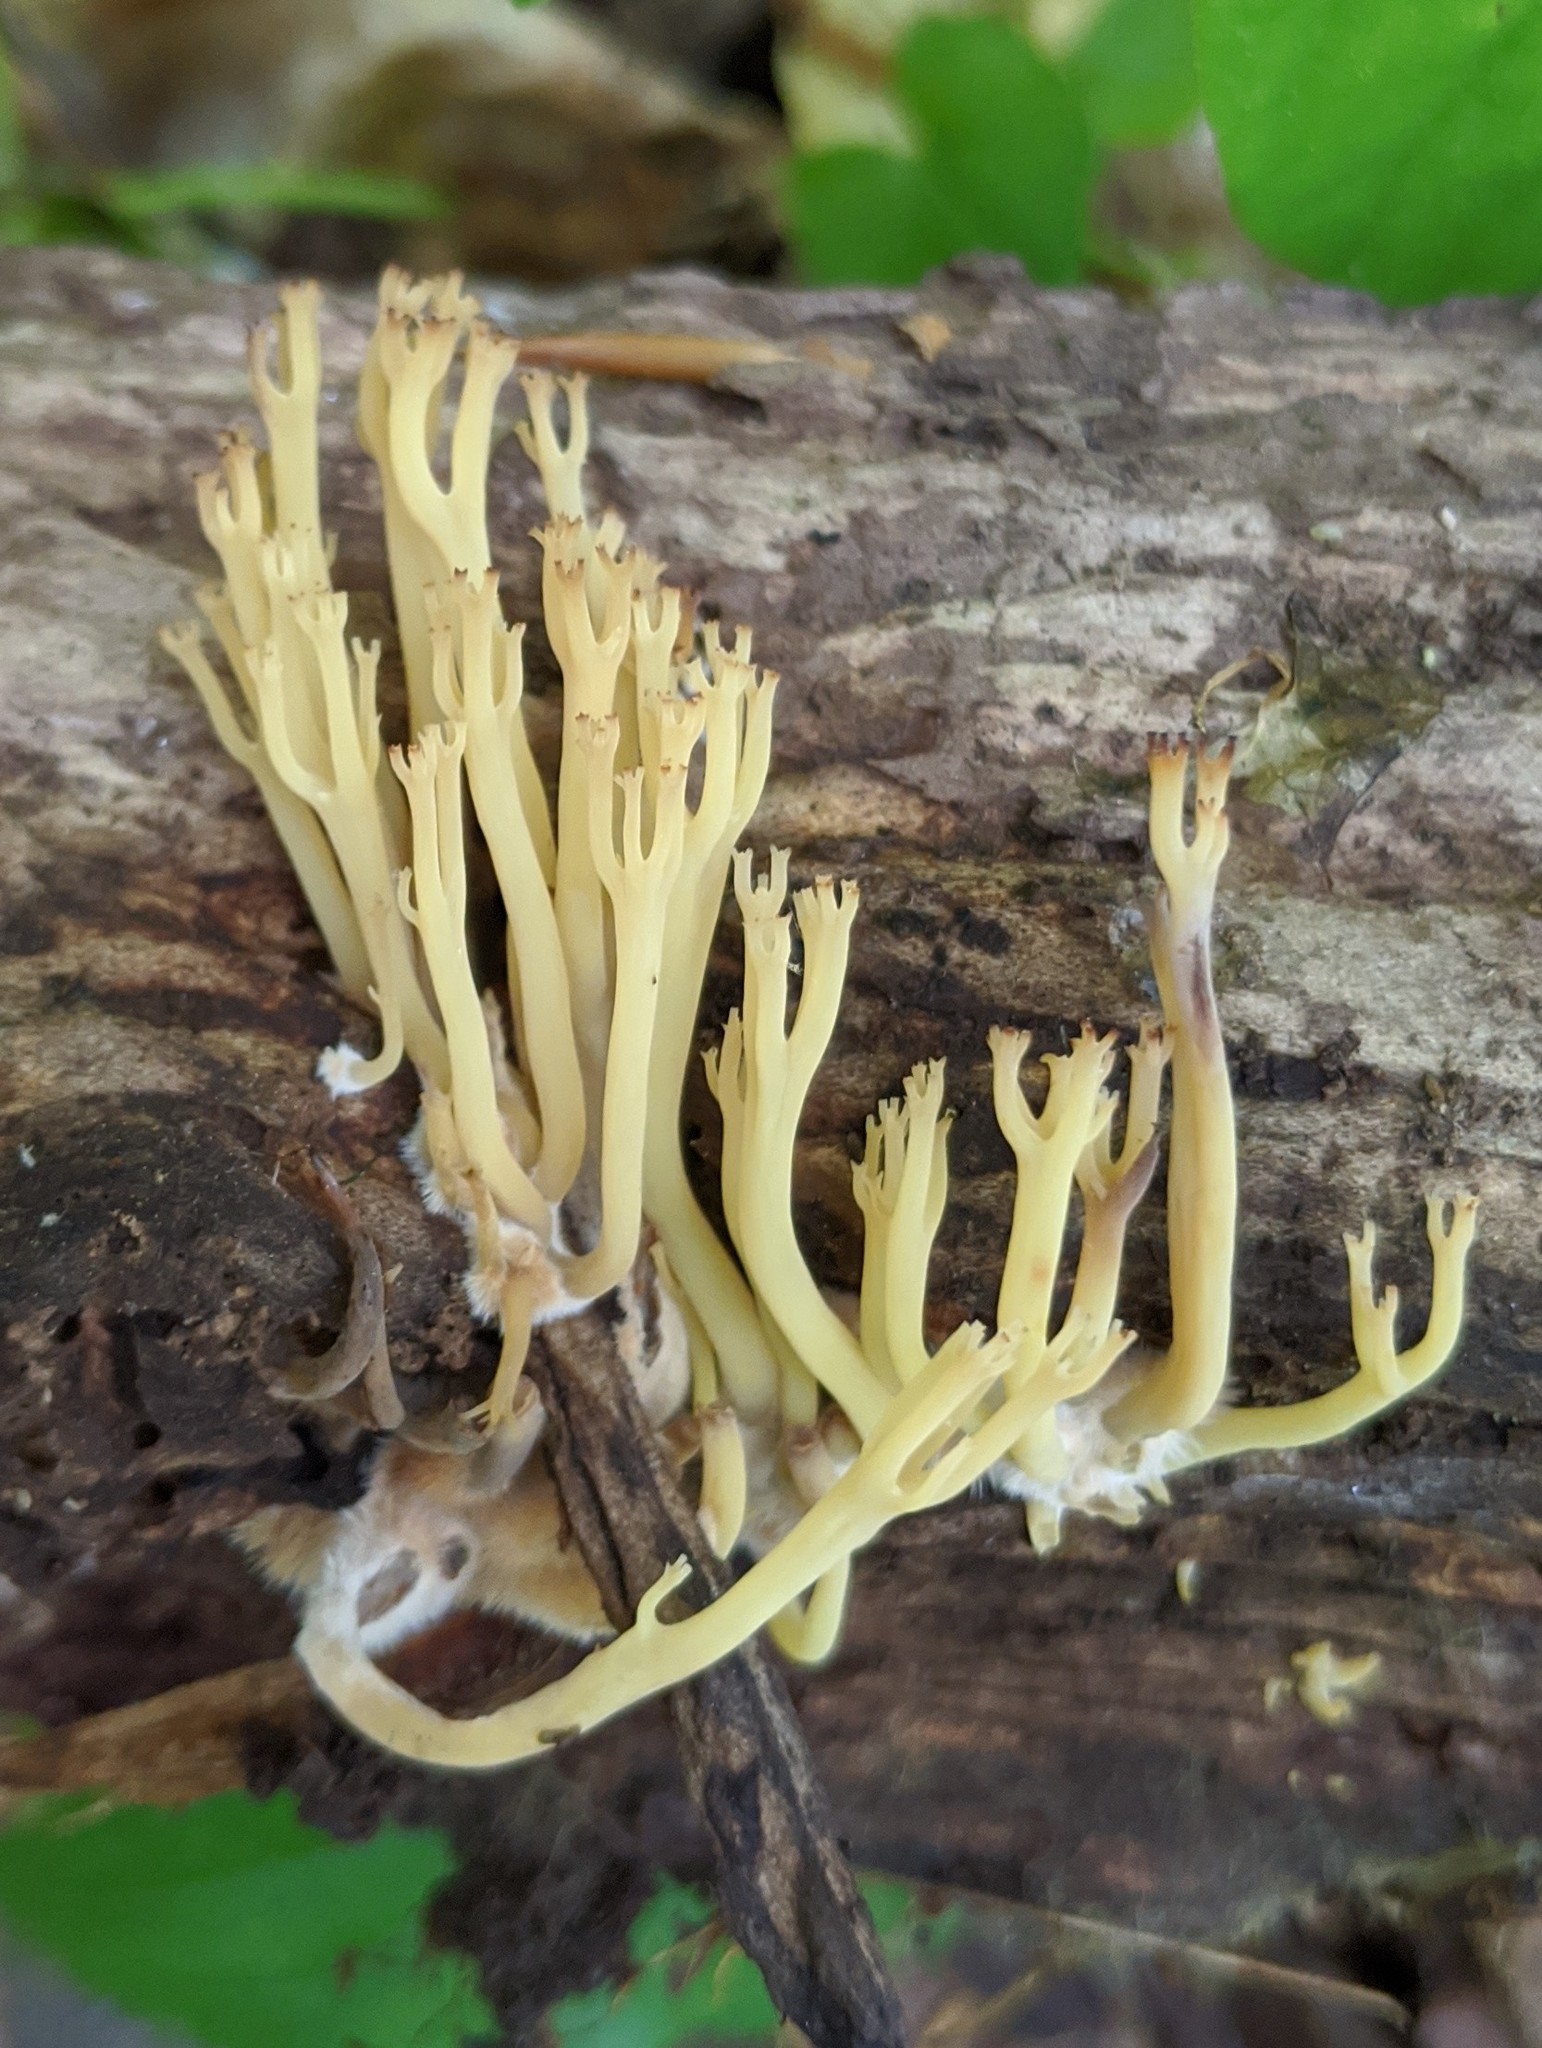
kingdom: Fungi
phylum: Basidiomycota
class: Agaricomycetes
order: Russulales
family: Auriscalpiaceae
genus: Artomyces
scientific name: Artomyces pyxidatus
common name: Crown-tipped coral fungus
